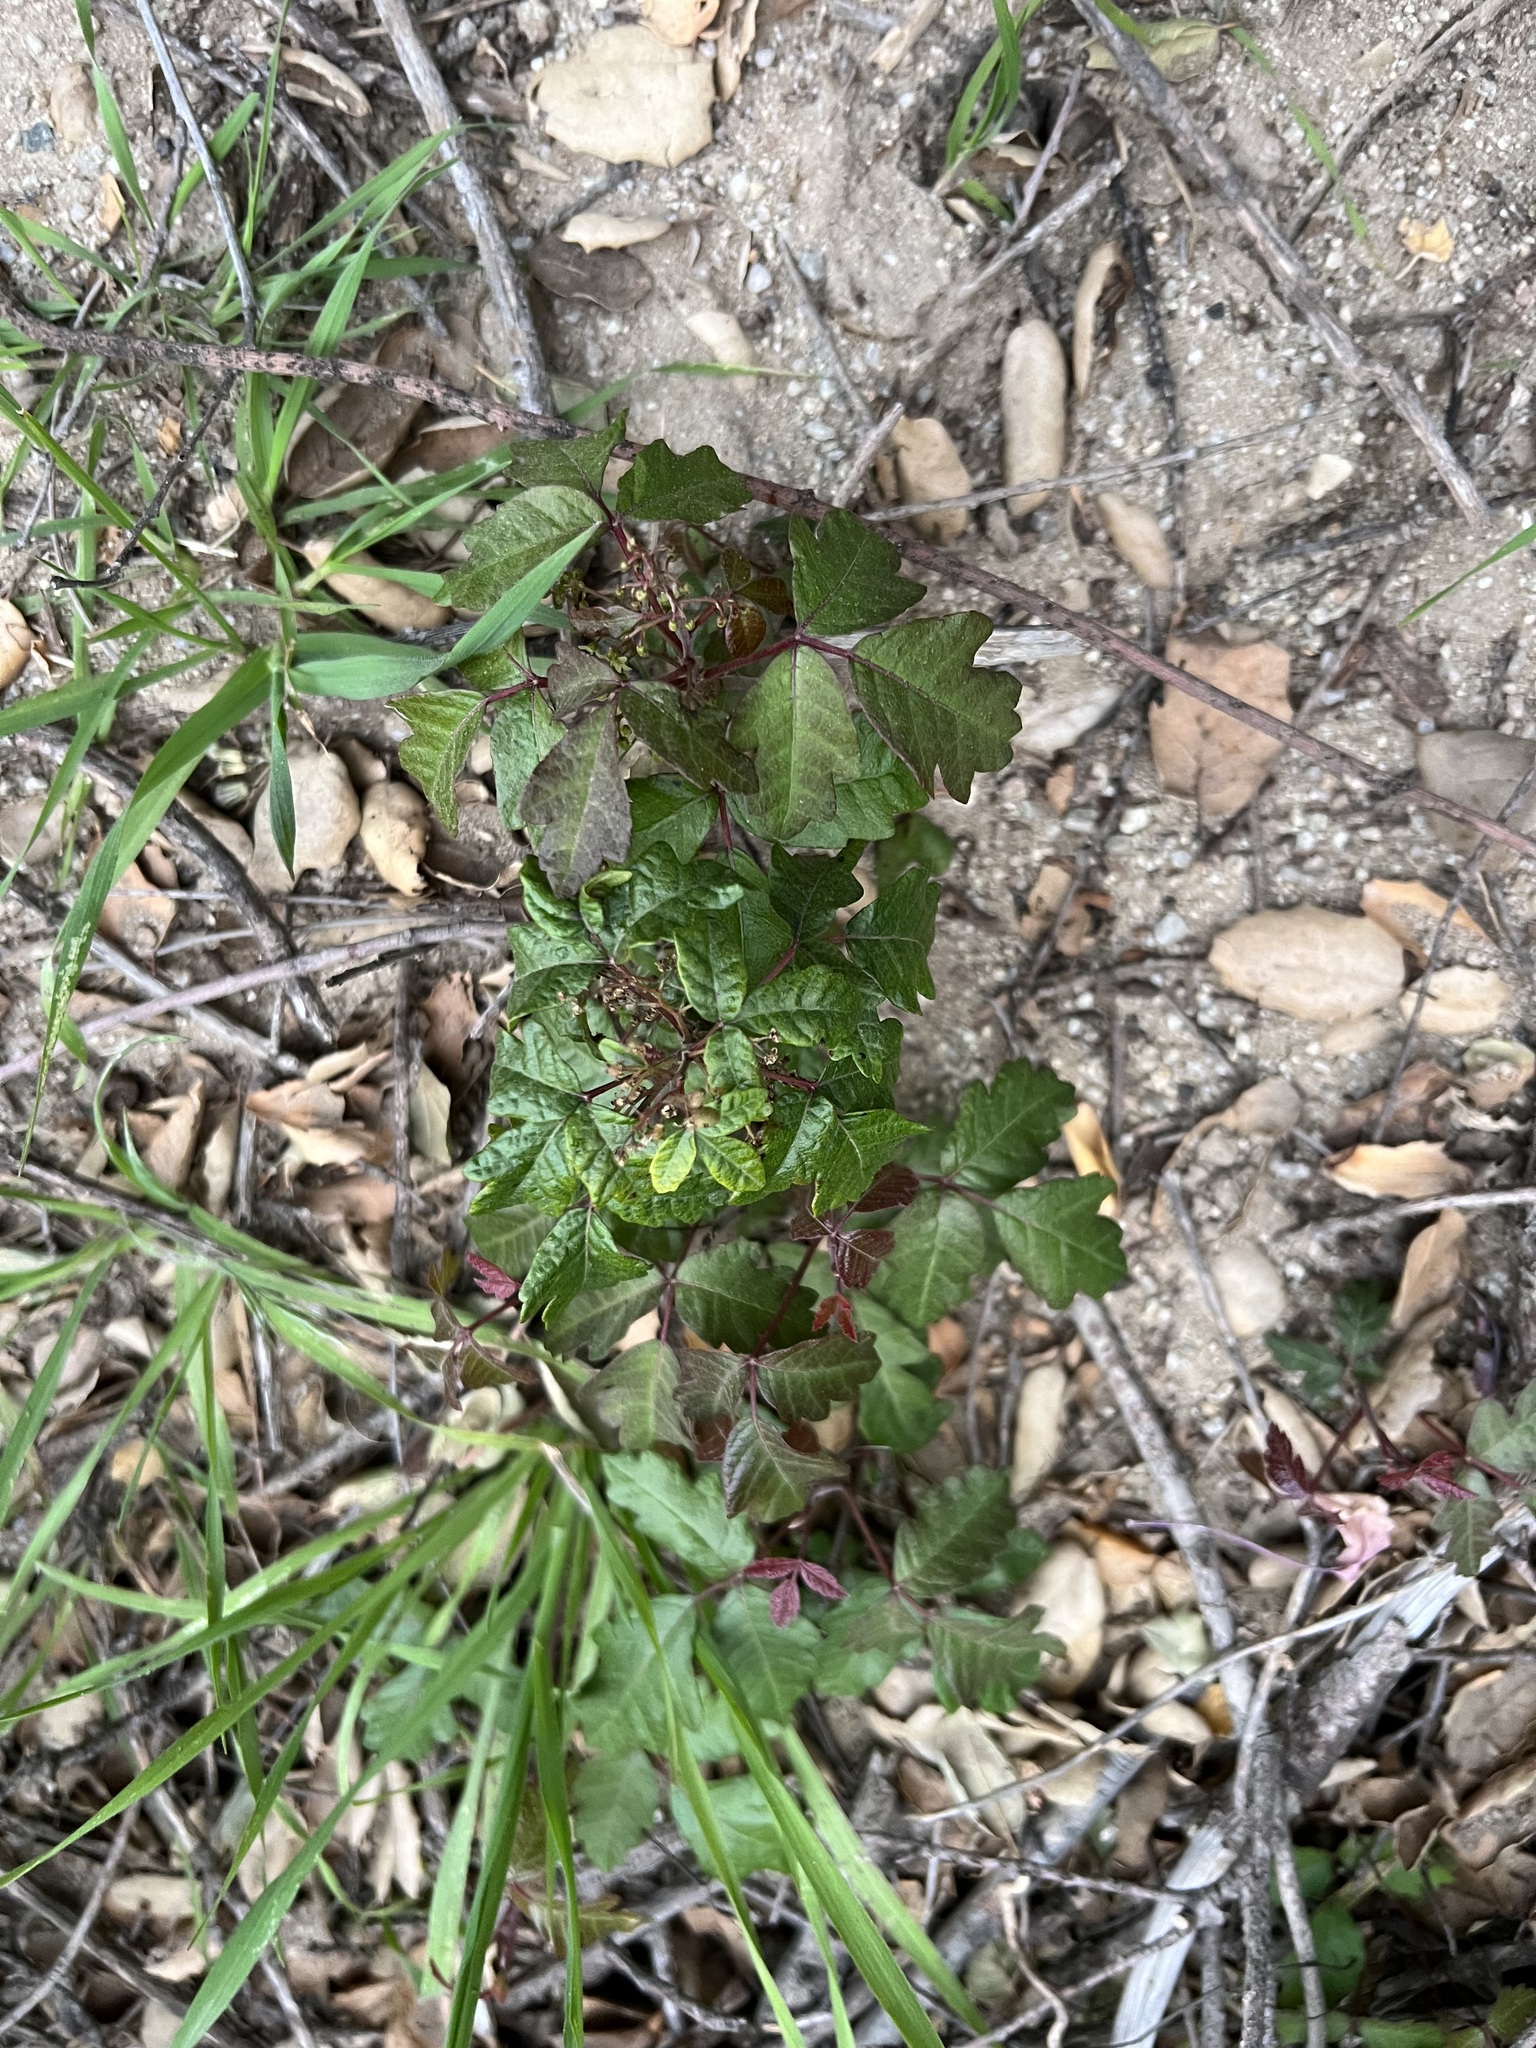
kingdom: Plantae
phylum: Tracheophyta
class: Magnoliopsida
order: Sapindales
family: Anacardiaceae
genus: Toxicodendron
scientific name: Toxicodendron diversilobum
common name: Pacific poison-oak
